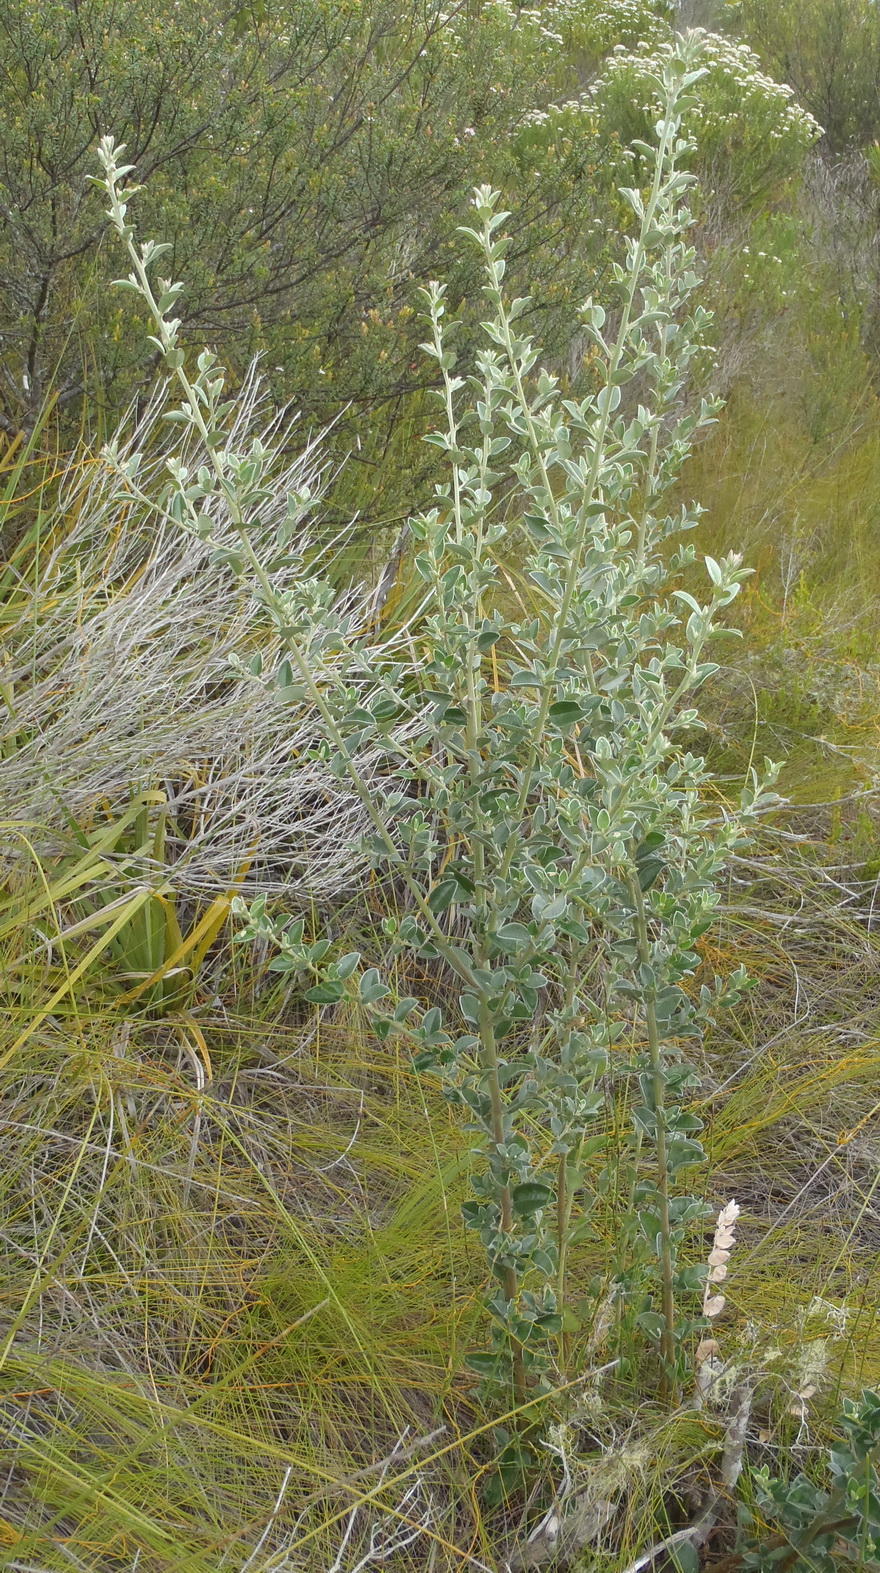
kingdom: Plantae
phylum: Tracheophyta
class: Magnoliopsida
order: Fabales
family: Fabaceae
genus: Podalyria
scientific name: Podalyria myrtillifolia
